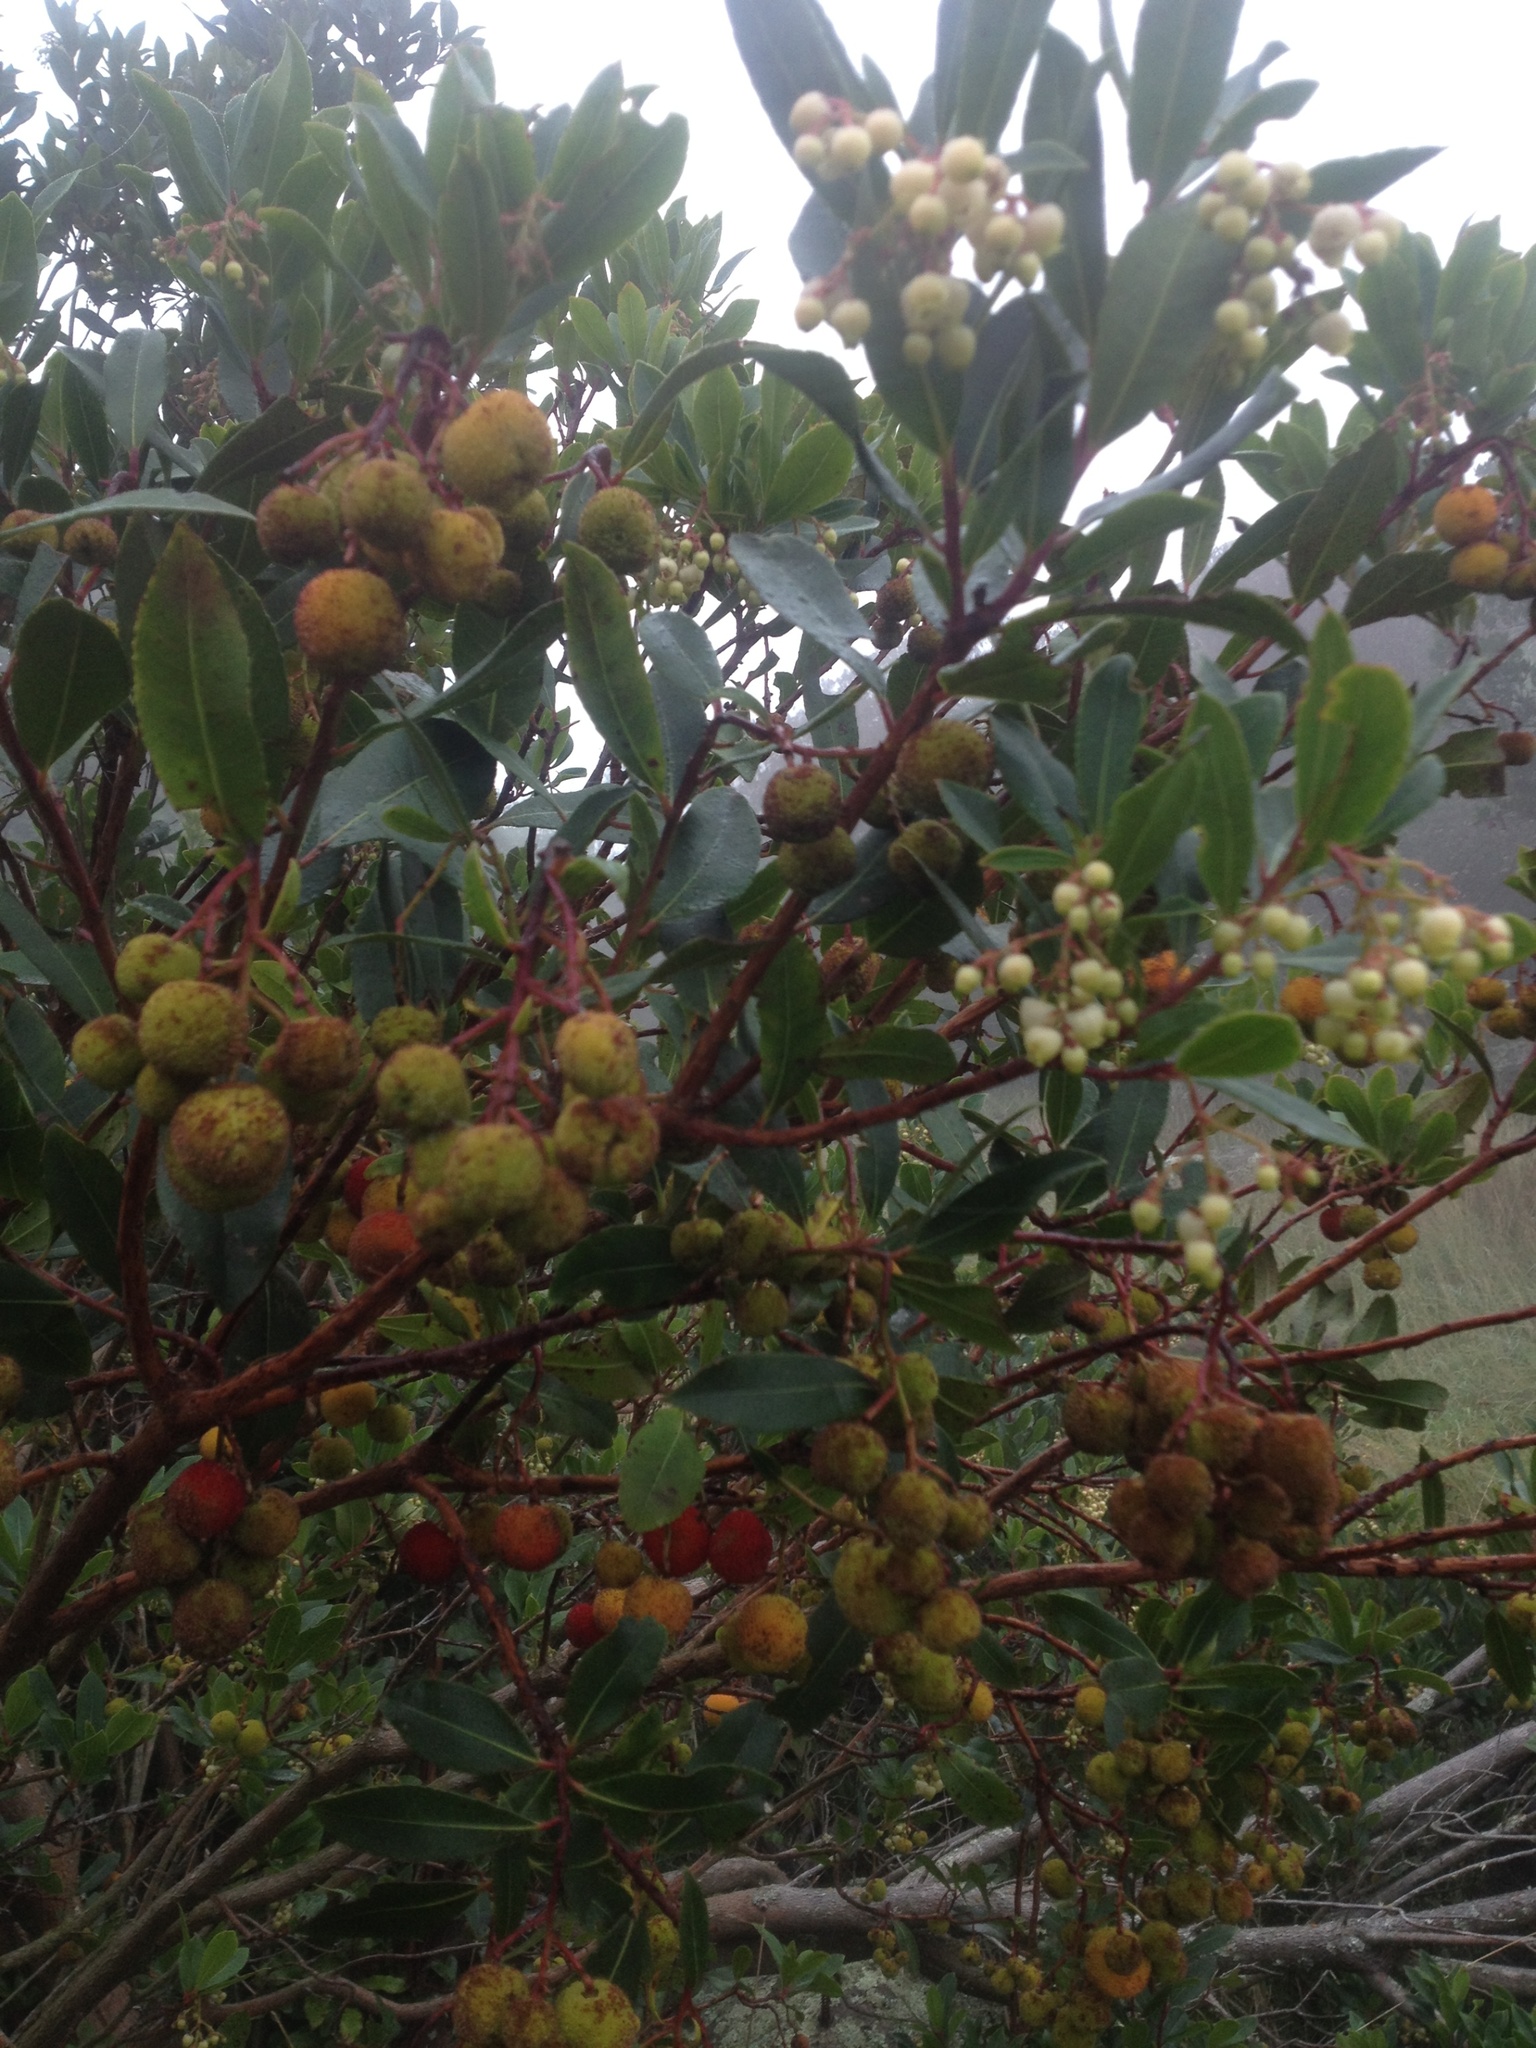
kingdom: Plantae
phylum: Tracheophyta
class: Magnoliopsida
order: Ericales
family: Ericaceae
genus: Arbutus
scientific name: Arbutus unedo
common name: Strawberry-tree
